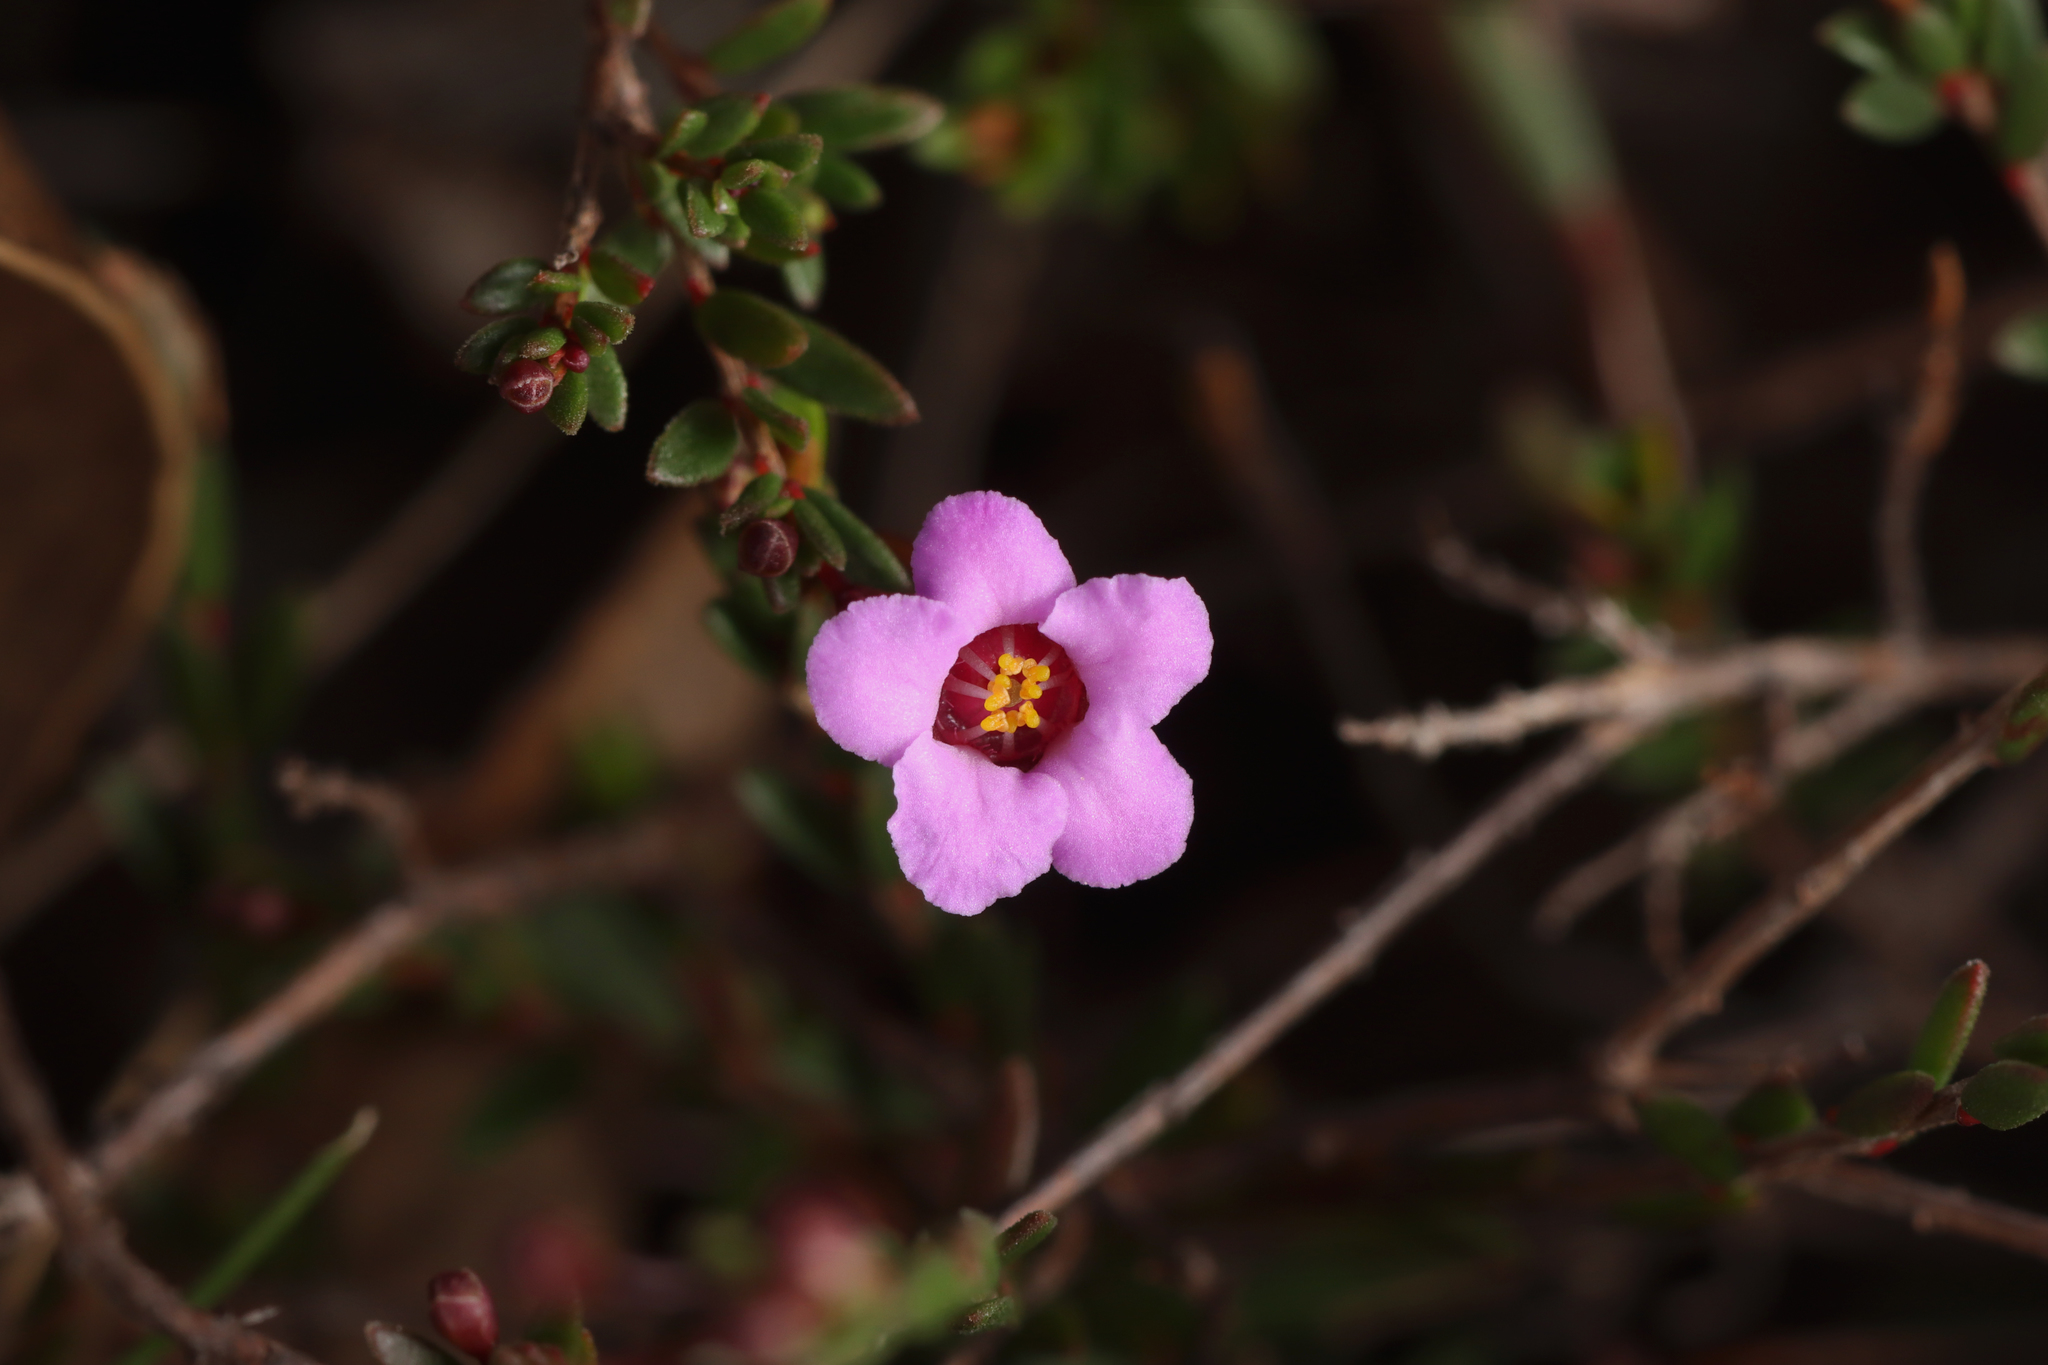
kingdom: Plantae
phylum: Tracheophyta
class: Magnoliopsida
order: Myrtales
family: Myrtaceae
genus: Euryomyrtus
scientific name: Euryomyrtus ramosissima
